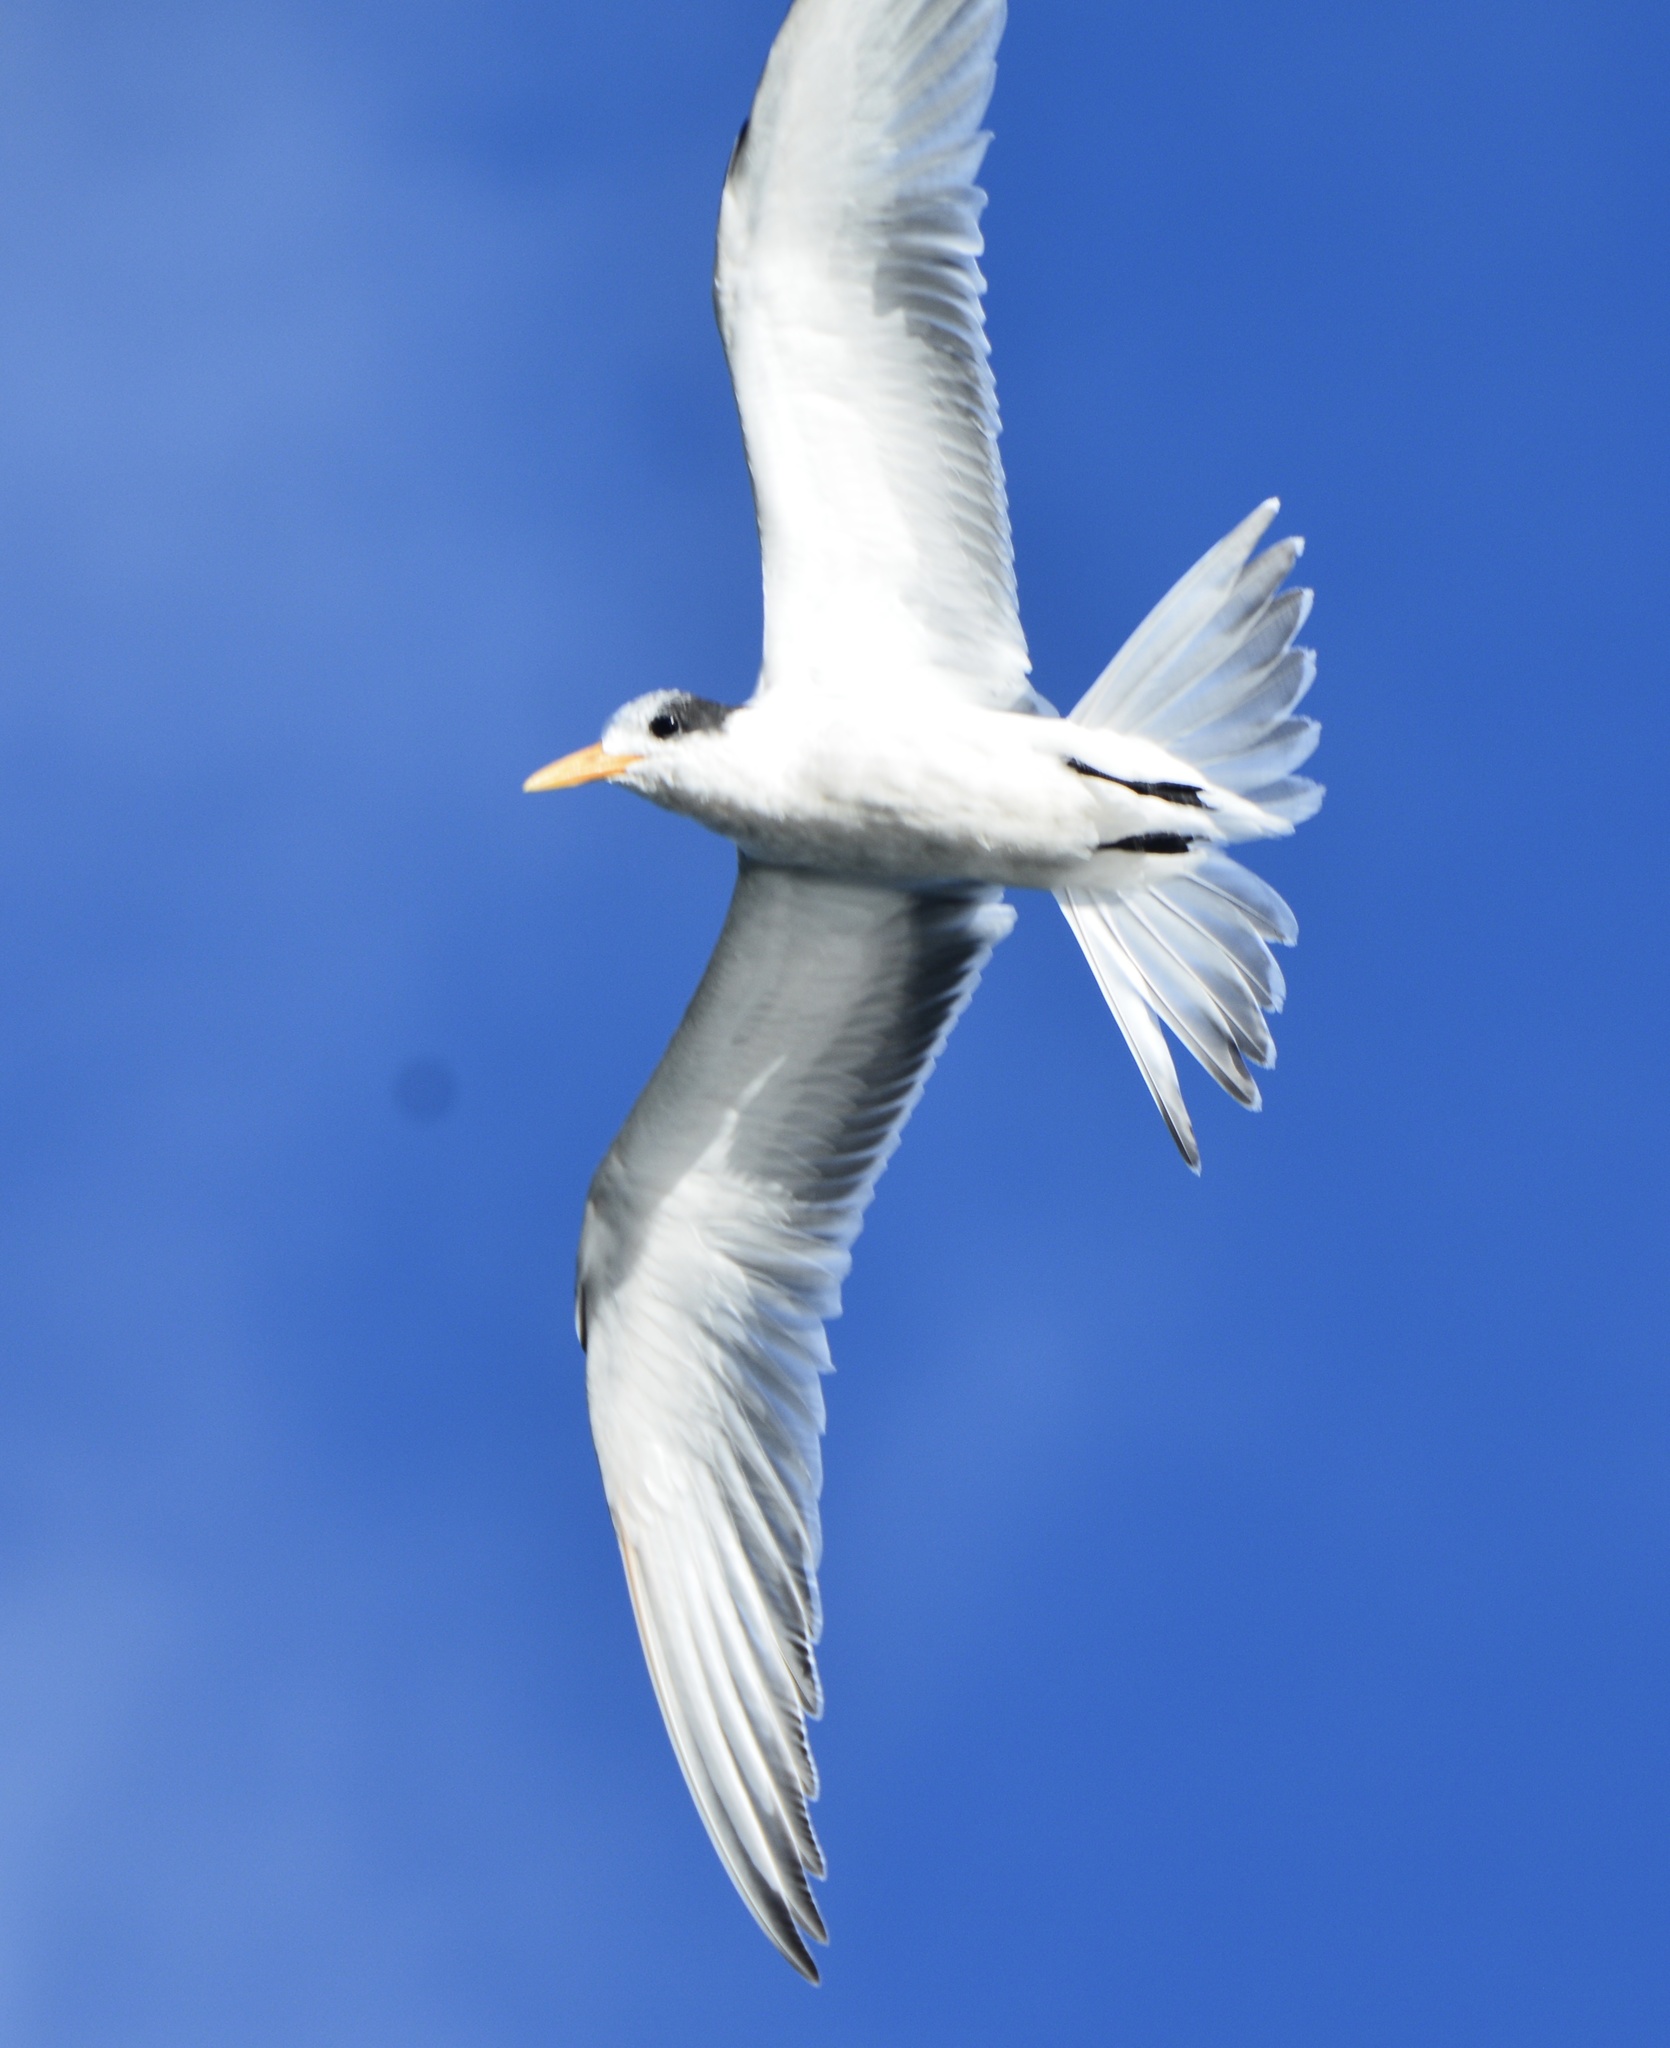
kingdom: Animalia
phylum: Chordata
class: Aves
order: Charadriiformes
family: Laridae
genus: Thalasseus
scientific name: Thalasseus elegans
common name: Elegant tern
